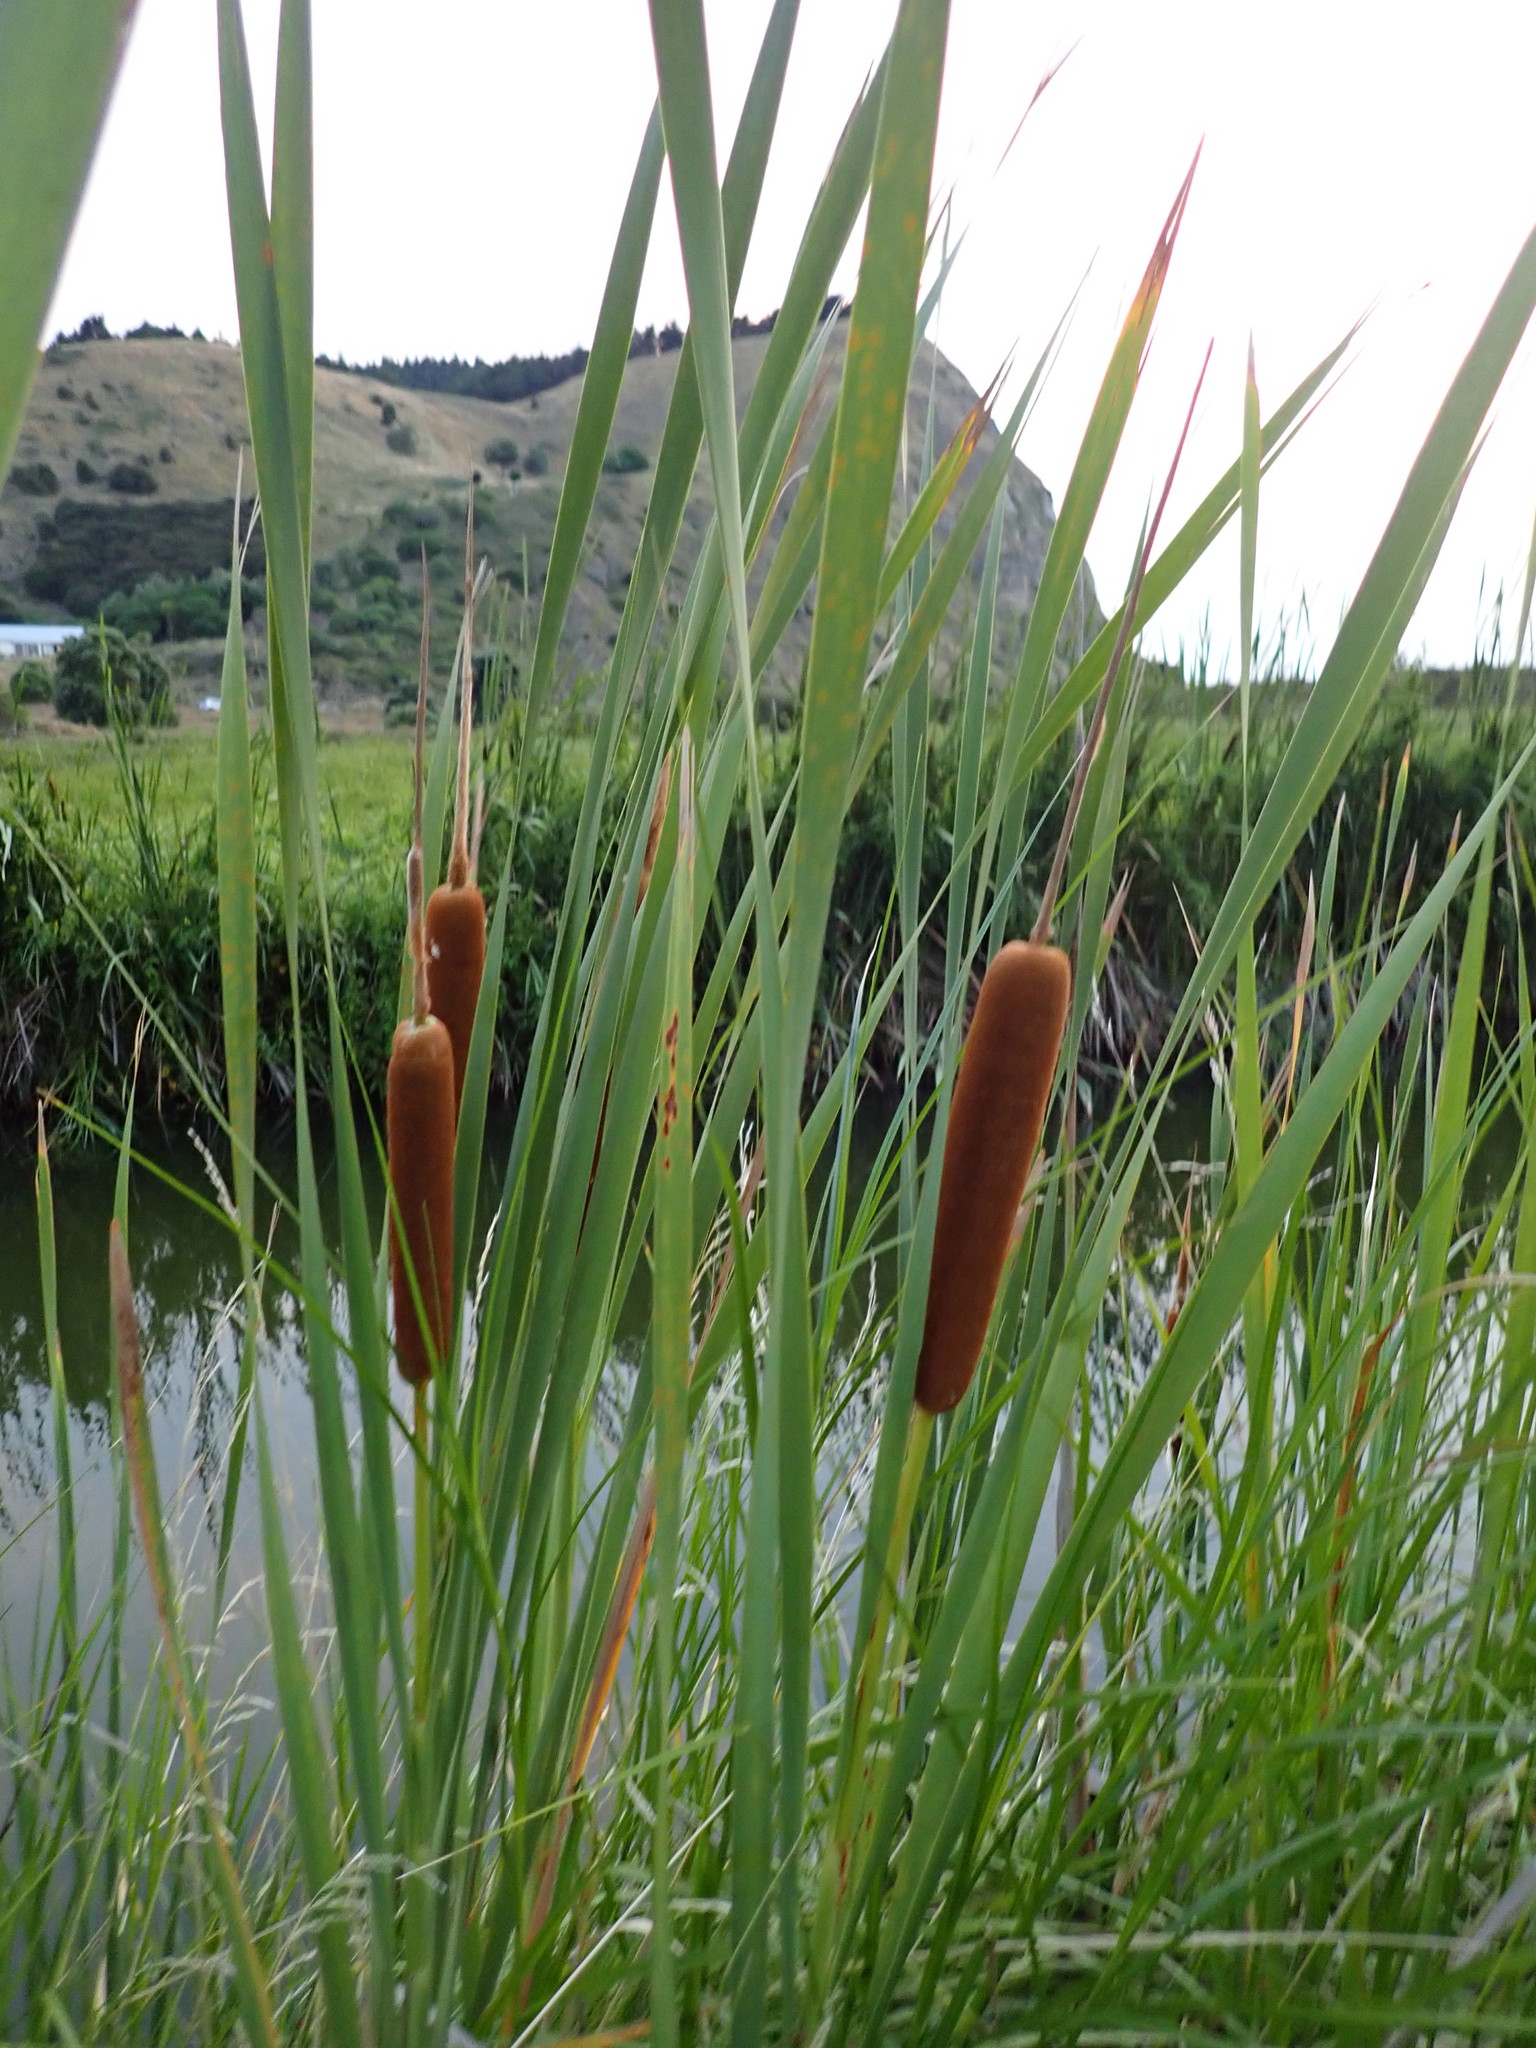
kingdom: Plantae
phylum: Tracheophyta
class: Liliopsida
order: Poales
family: Typhaceae
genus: Typha
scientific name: Typha orientalis
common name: Bullrush
